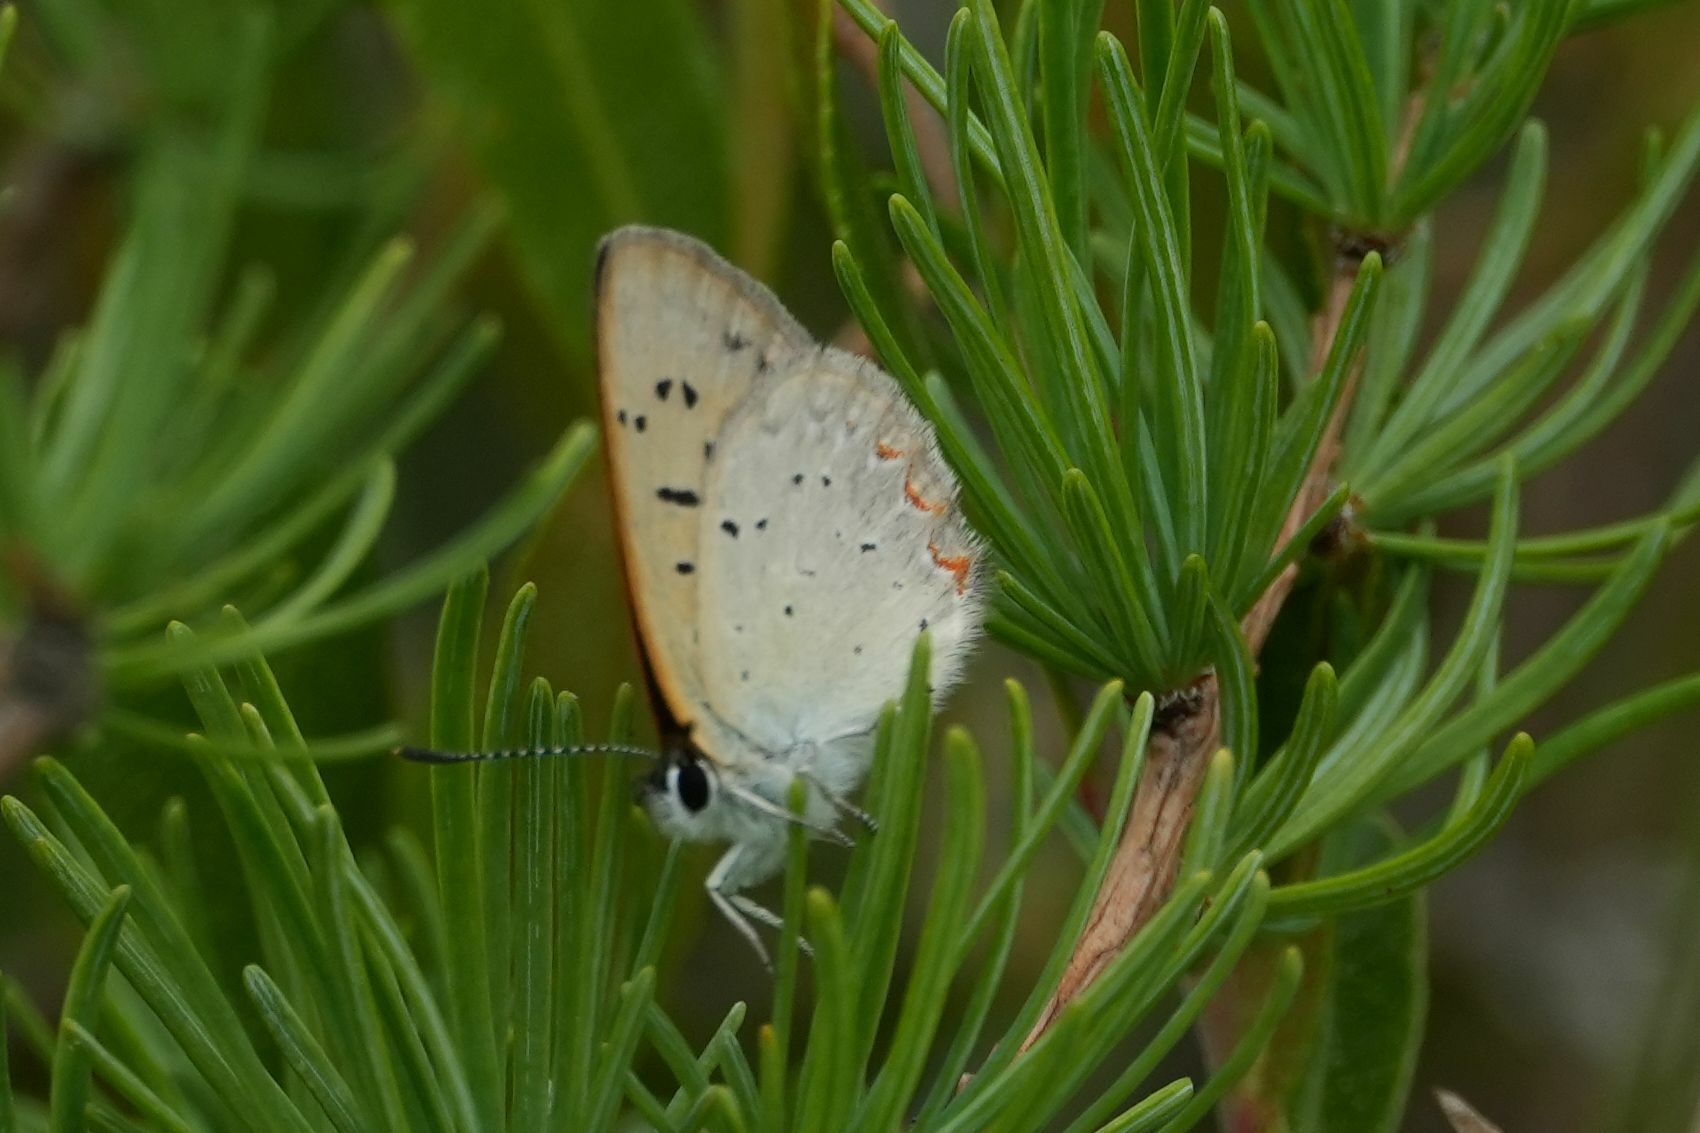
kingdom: Animalia
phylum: Arthropoda
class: Insecta
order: Lepidoptera
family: Lycaenidae
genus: Tharsalea
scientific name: Tharsalea epixanthe
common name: Bog copper
